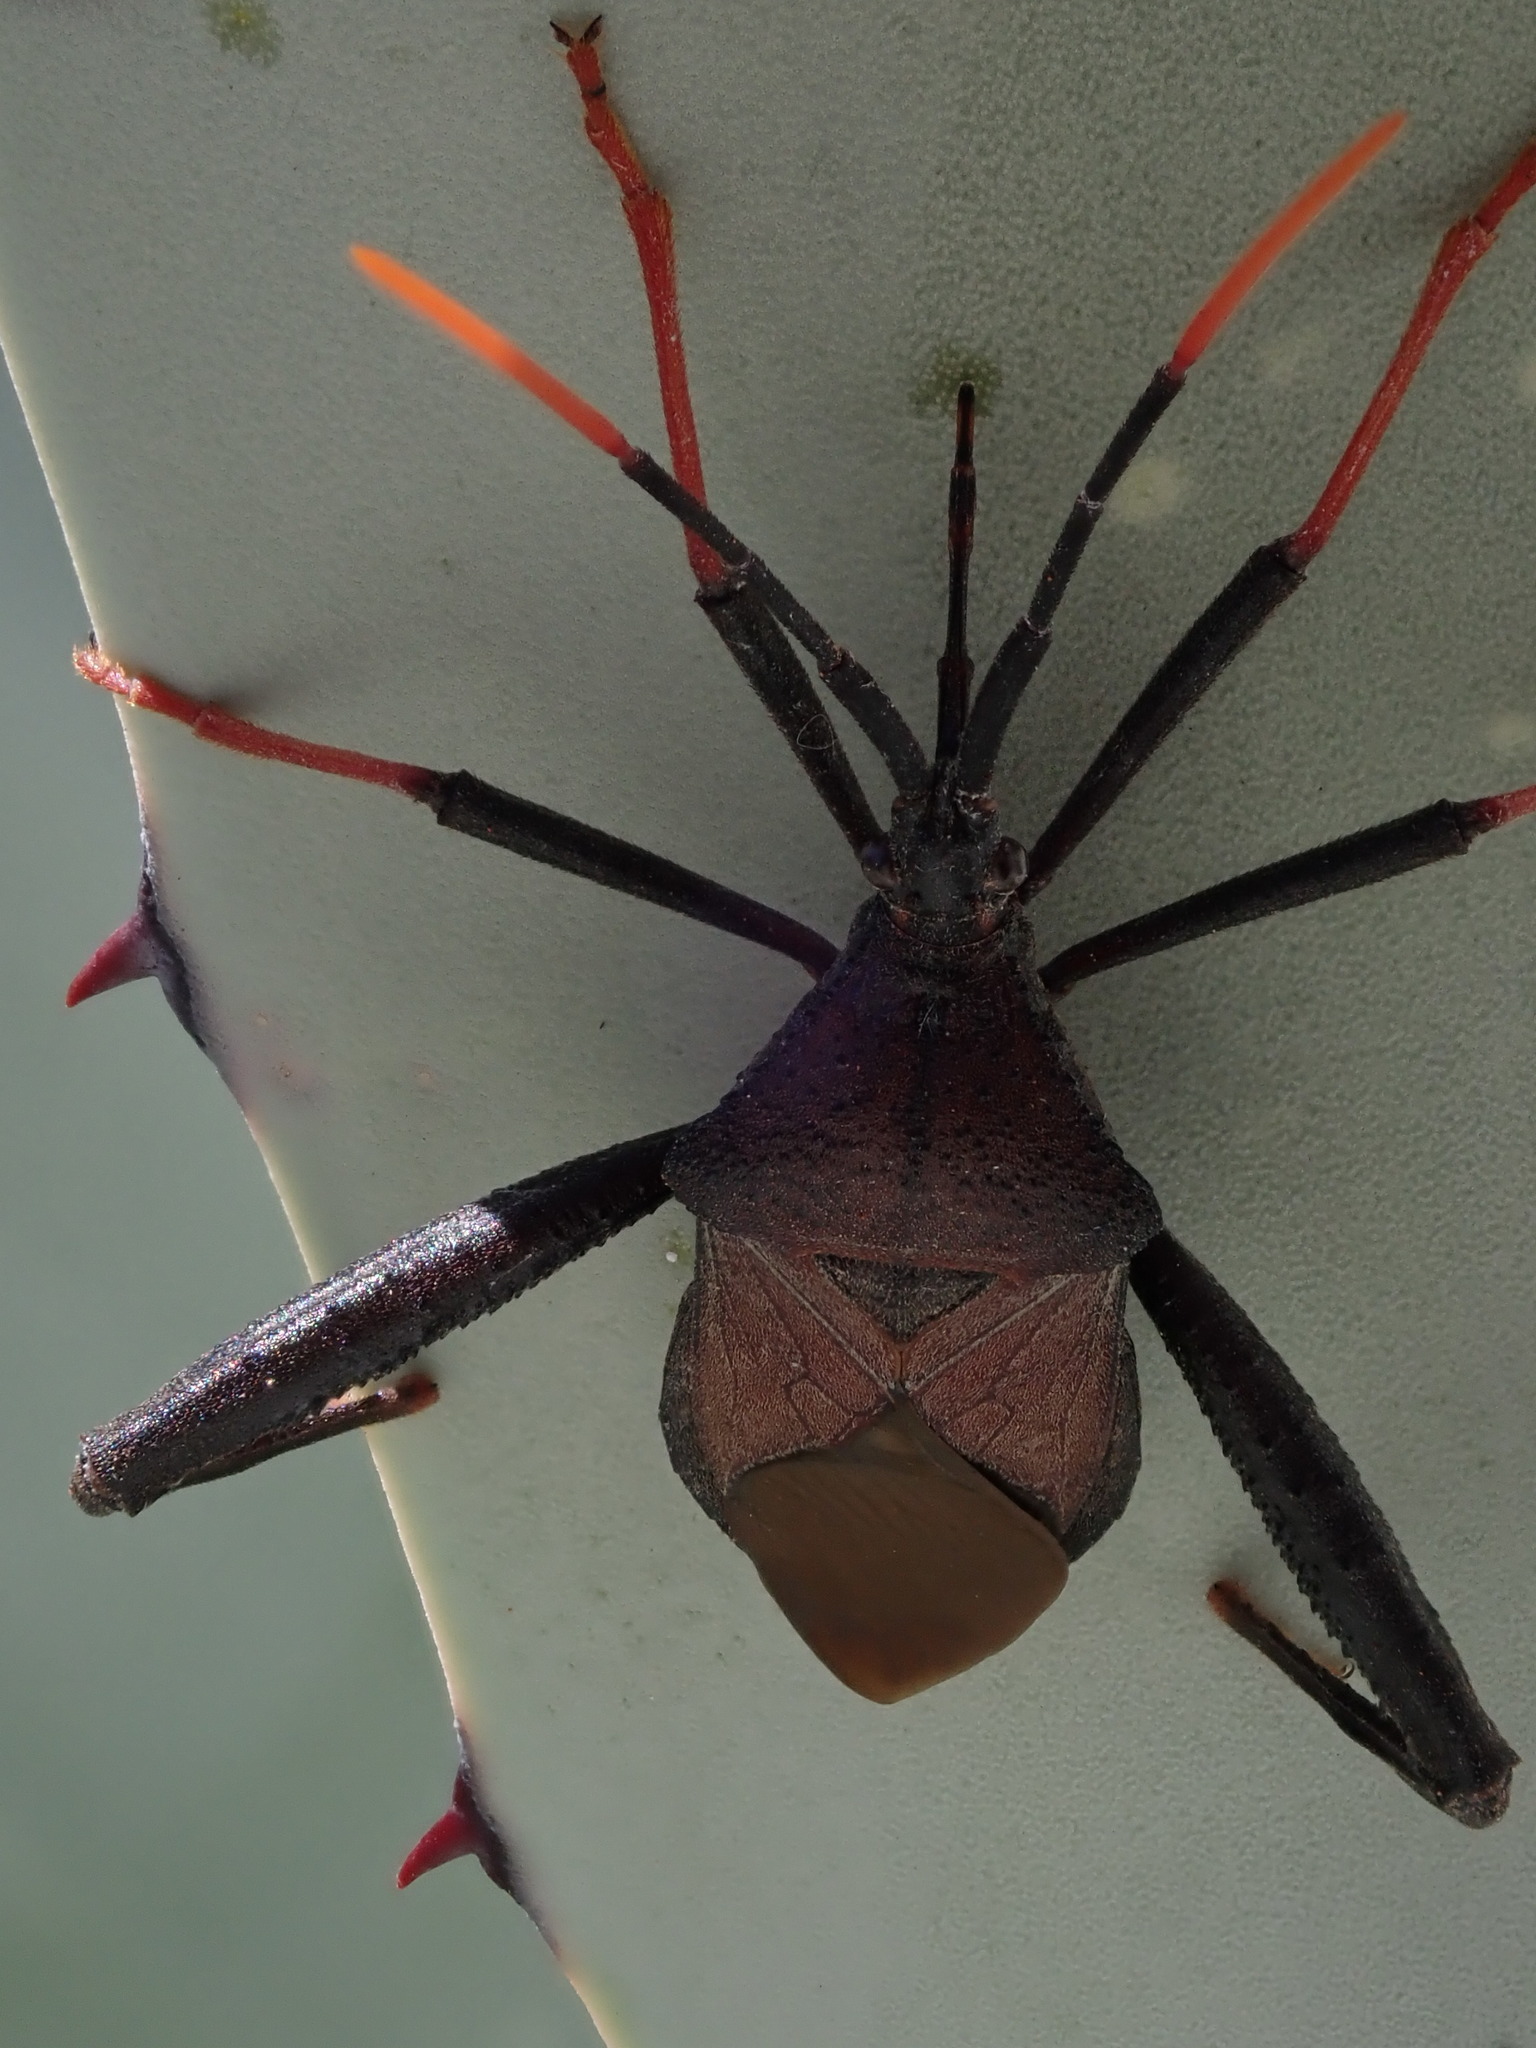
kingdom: Animalia
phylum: Arthropoda
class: Insecta
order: Hemiptera
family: Coreidae
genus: Acanthocephala
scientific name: Acanthocephala thomasi
